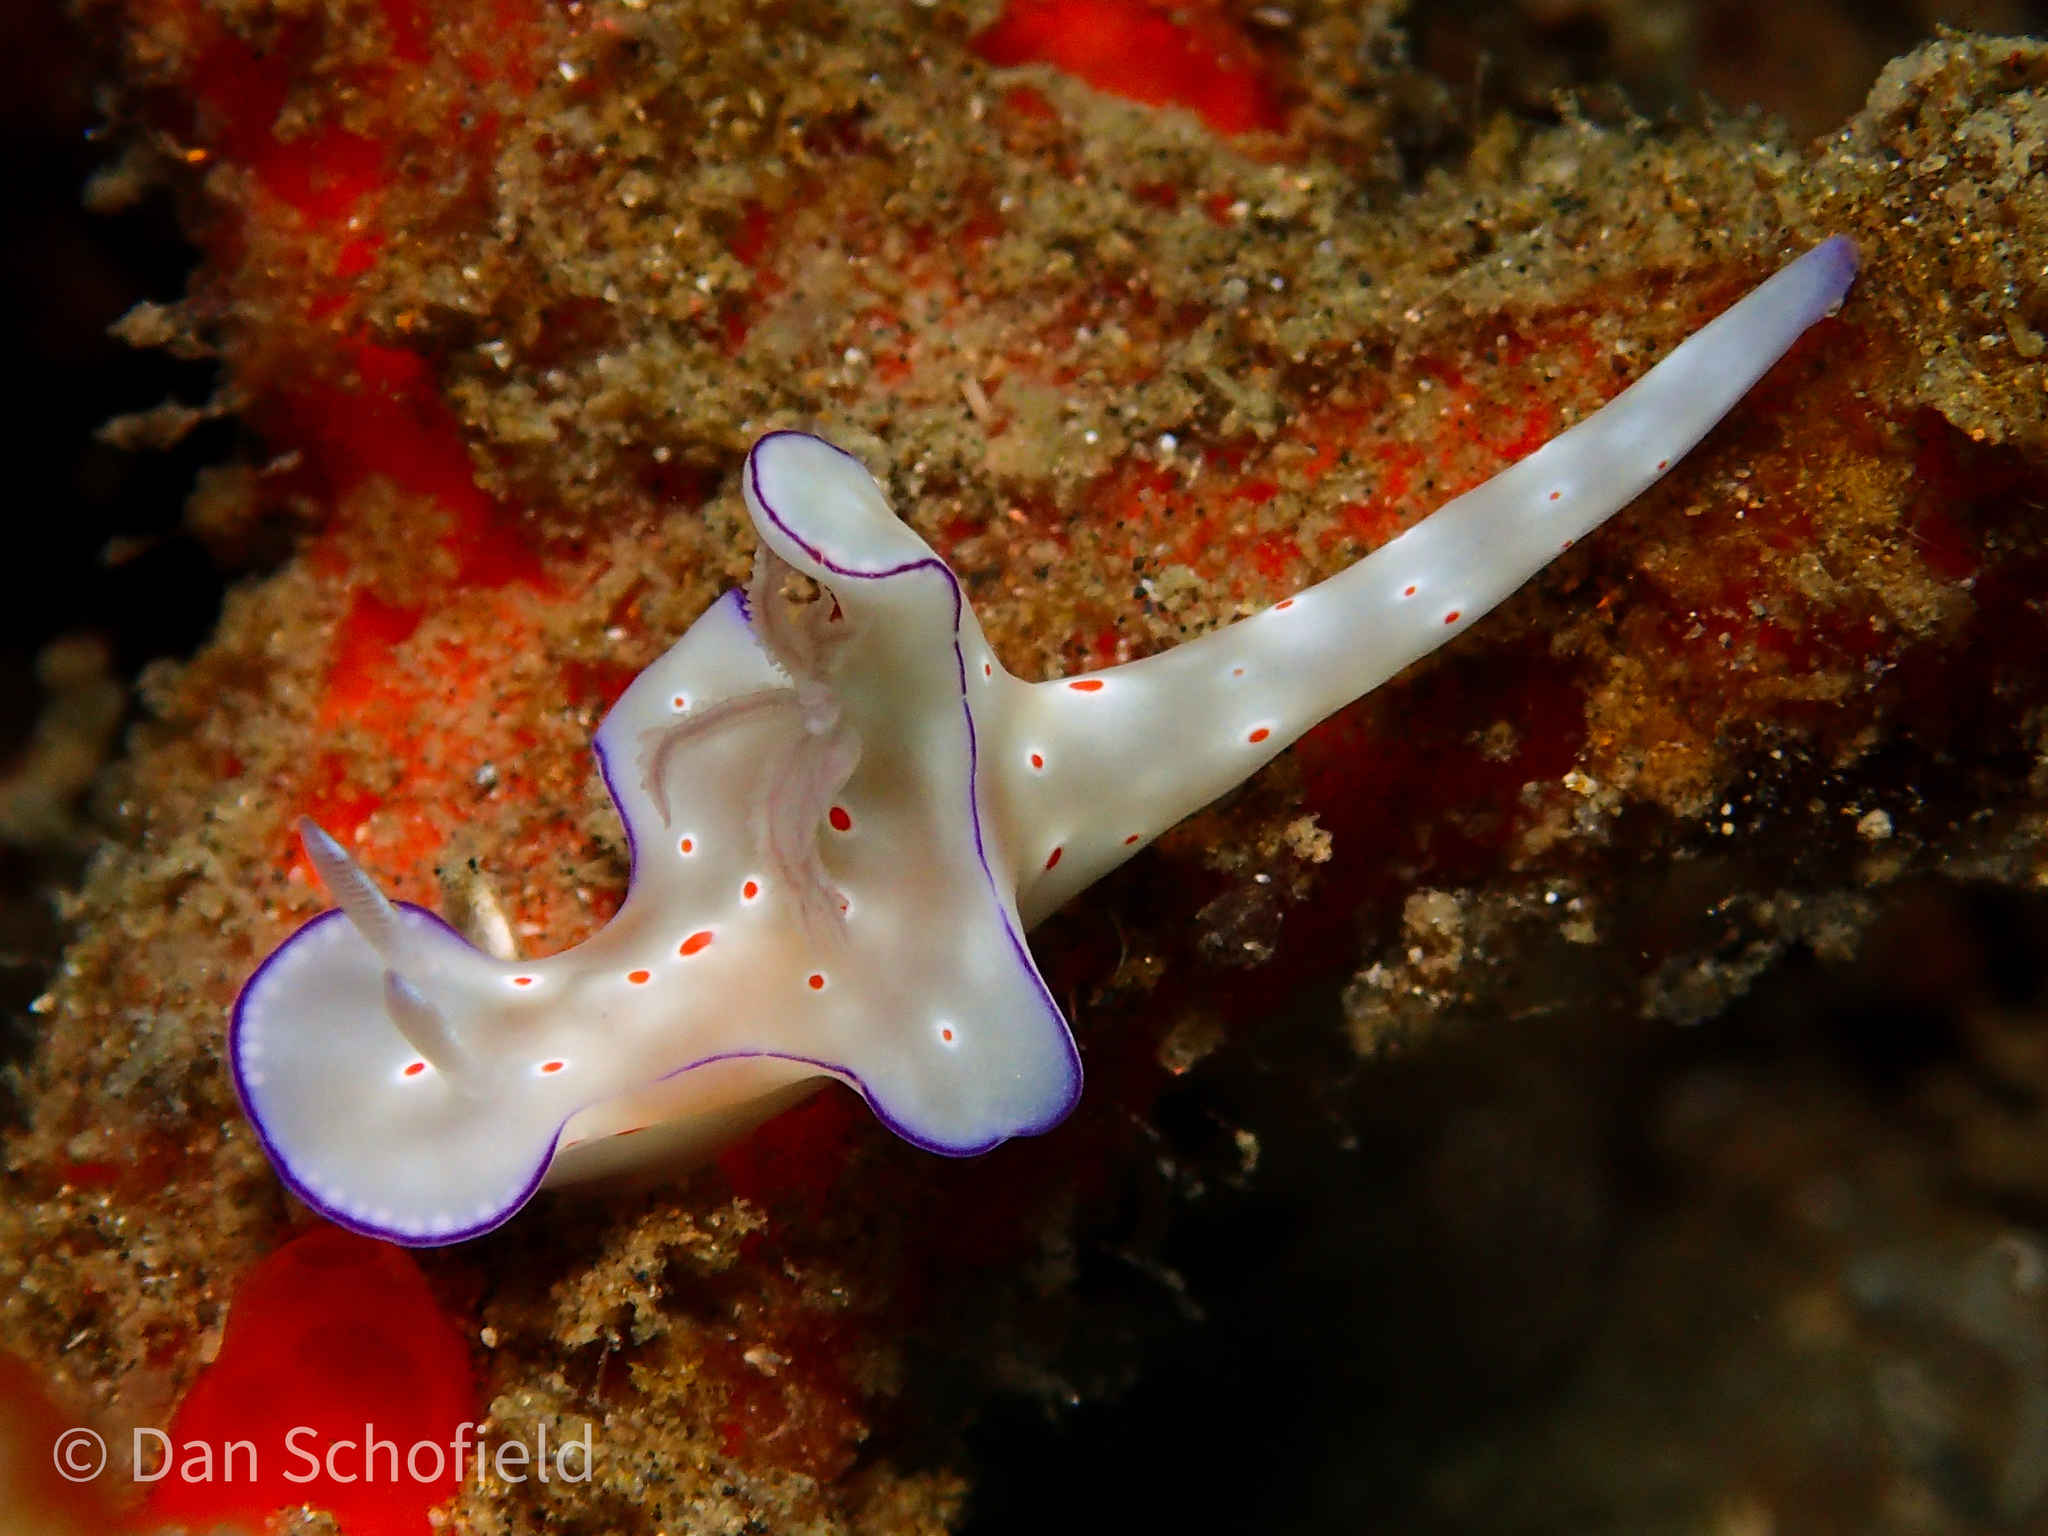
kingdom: Animalia
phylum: Mollusca
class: Gastropoda
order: Nudibranchia
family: Chromodorididae
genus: Ceratosoma
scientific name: Ceratosoma trilobatum
